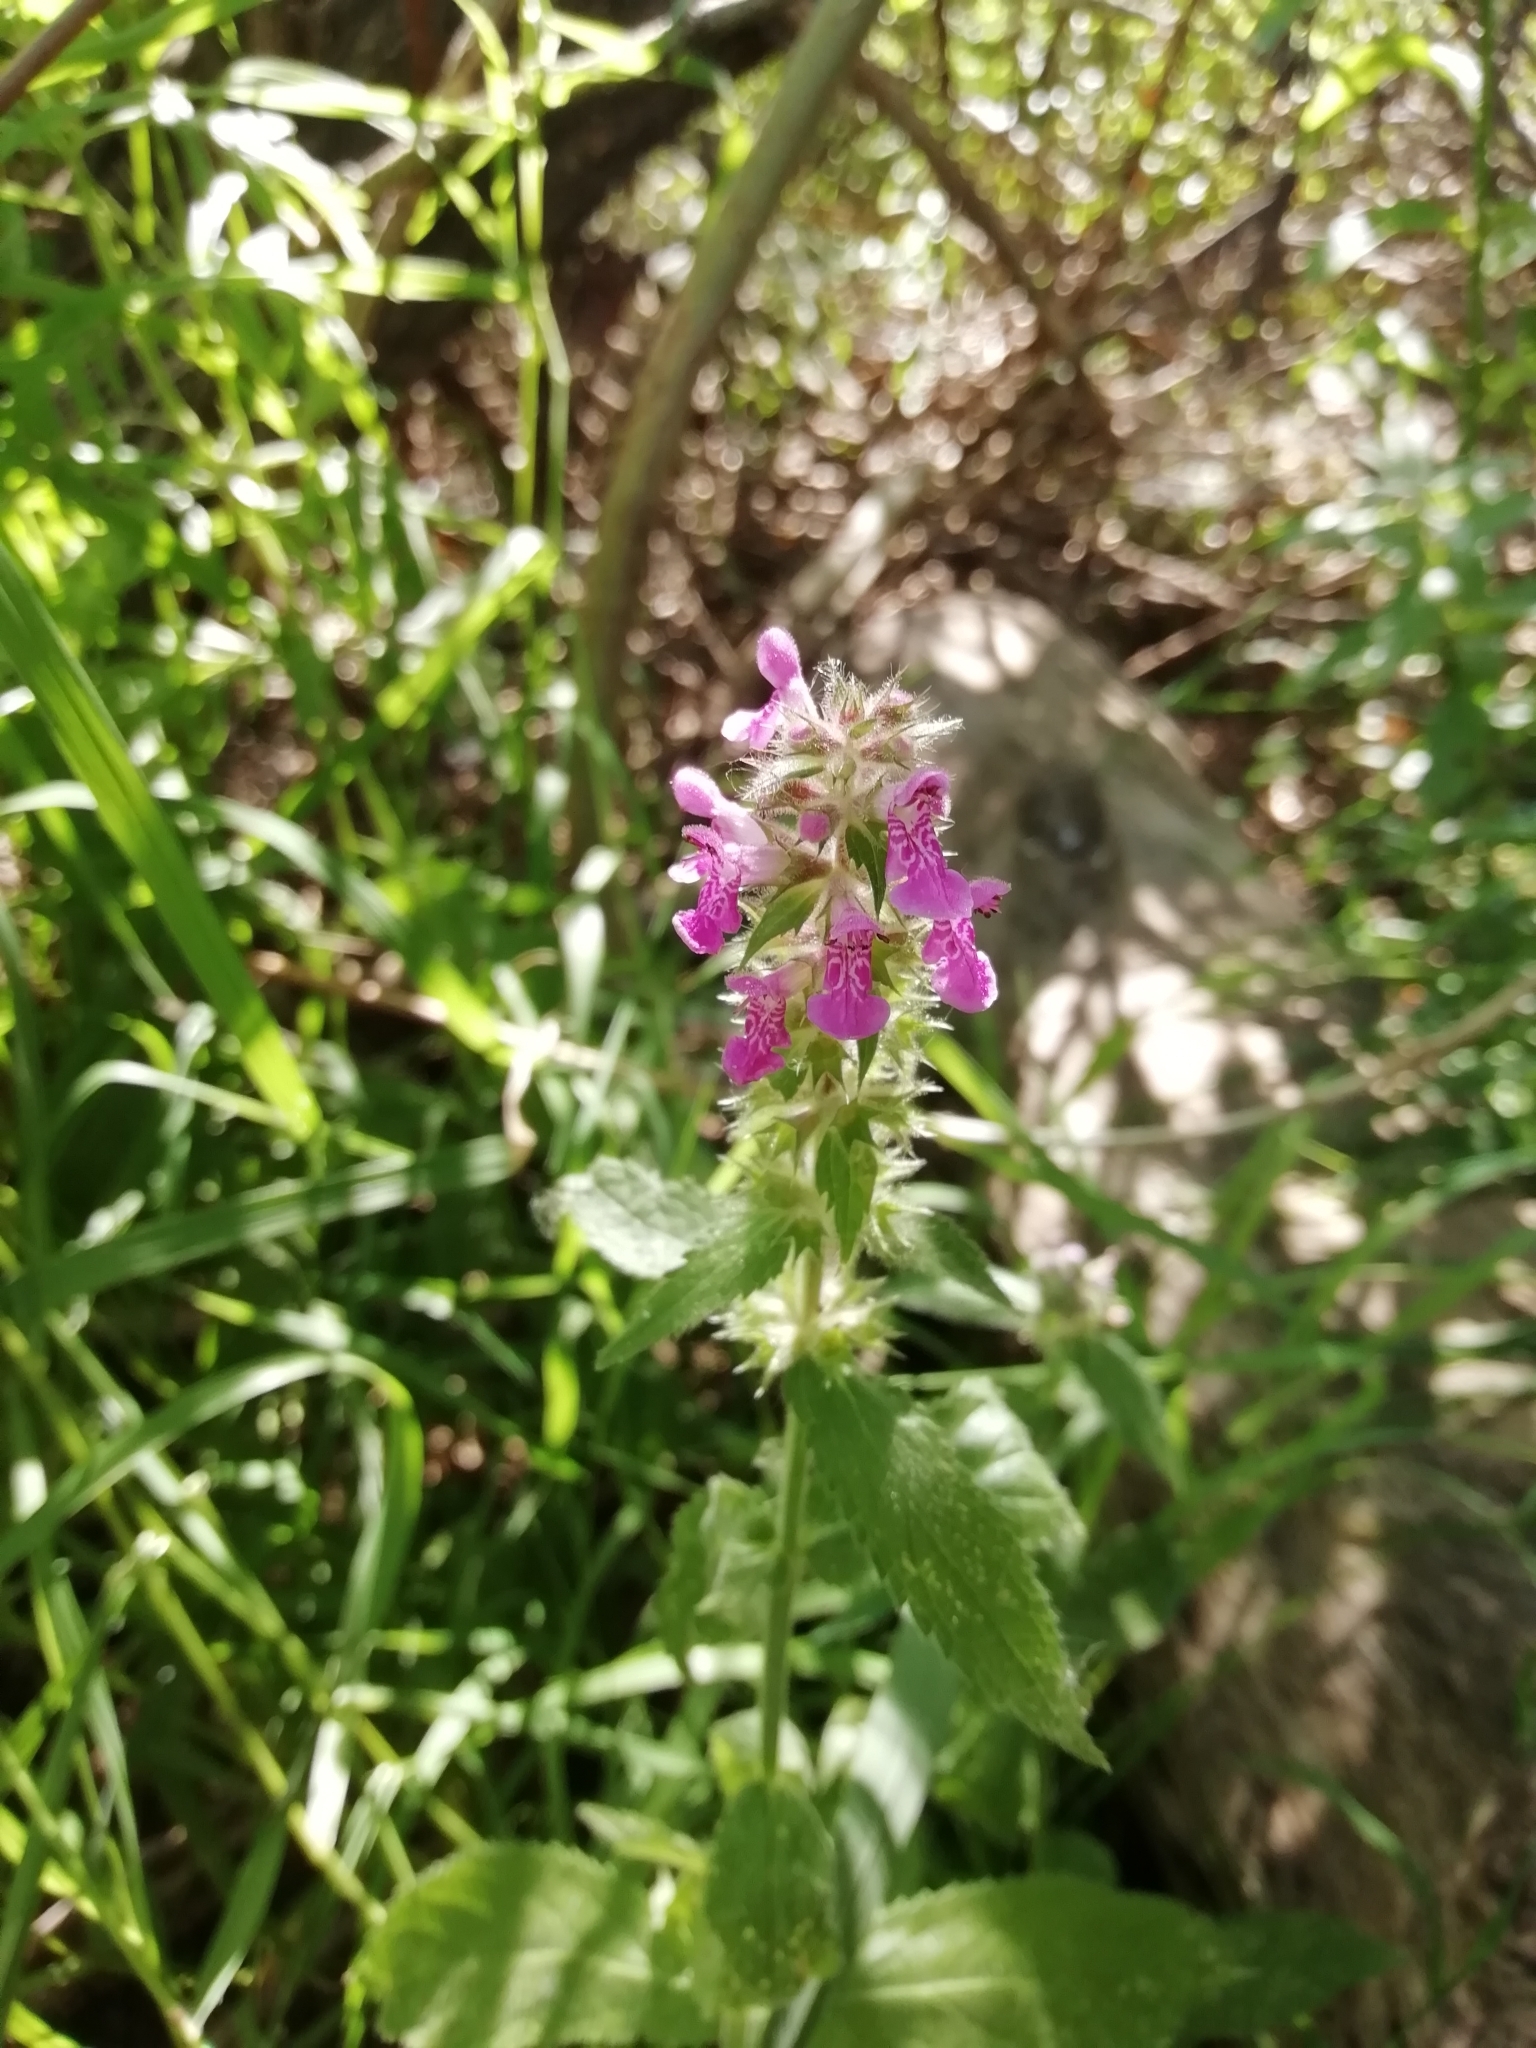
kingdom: Plantae
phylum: Tracheophyta
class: Magnoliopsida
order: Lamiales
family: Lamiaceae
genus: Stachys
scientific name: Stachys palustris
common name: Marsh woundwort
